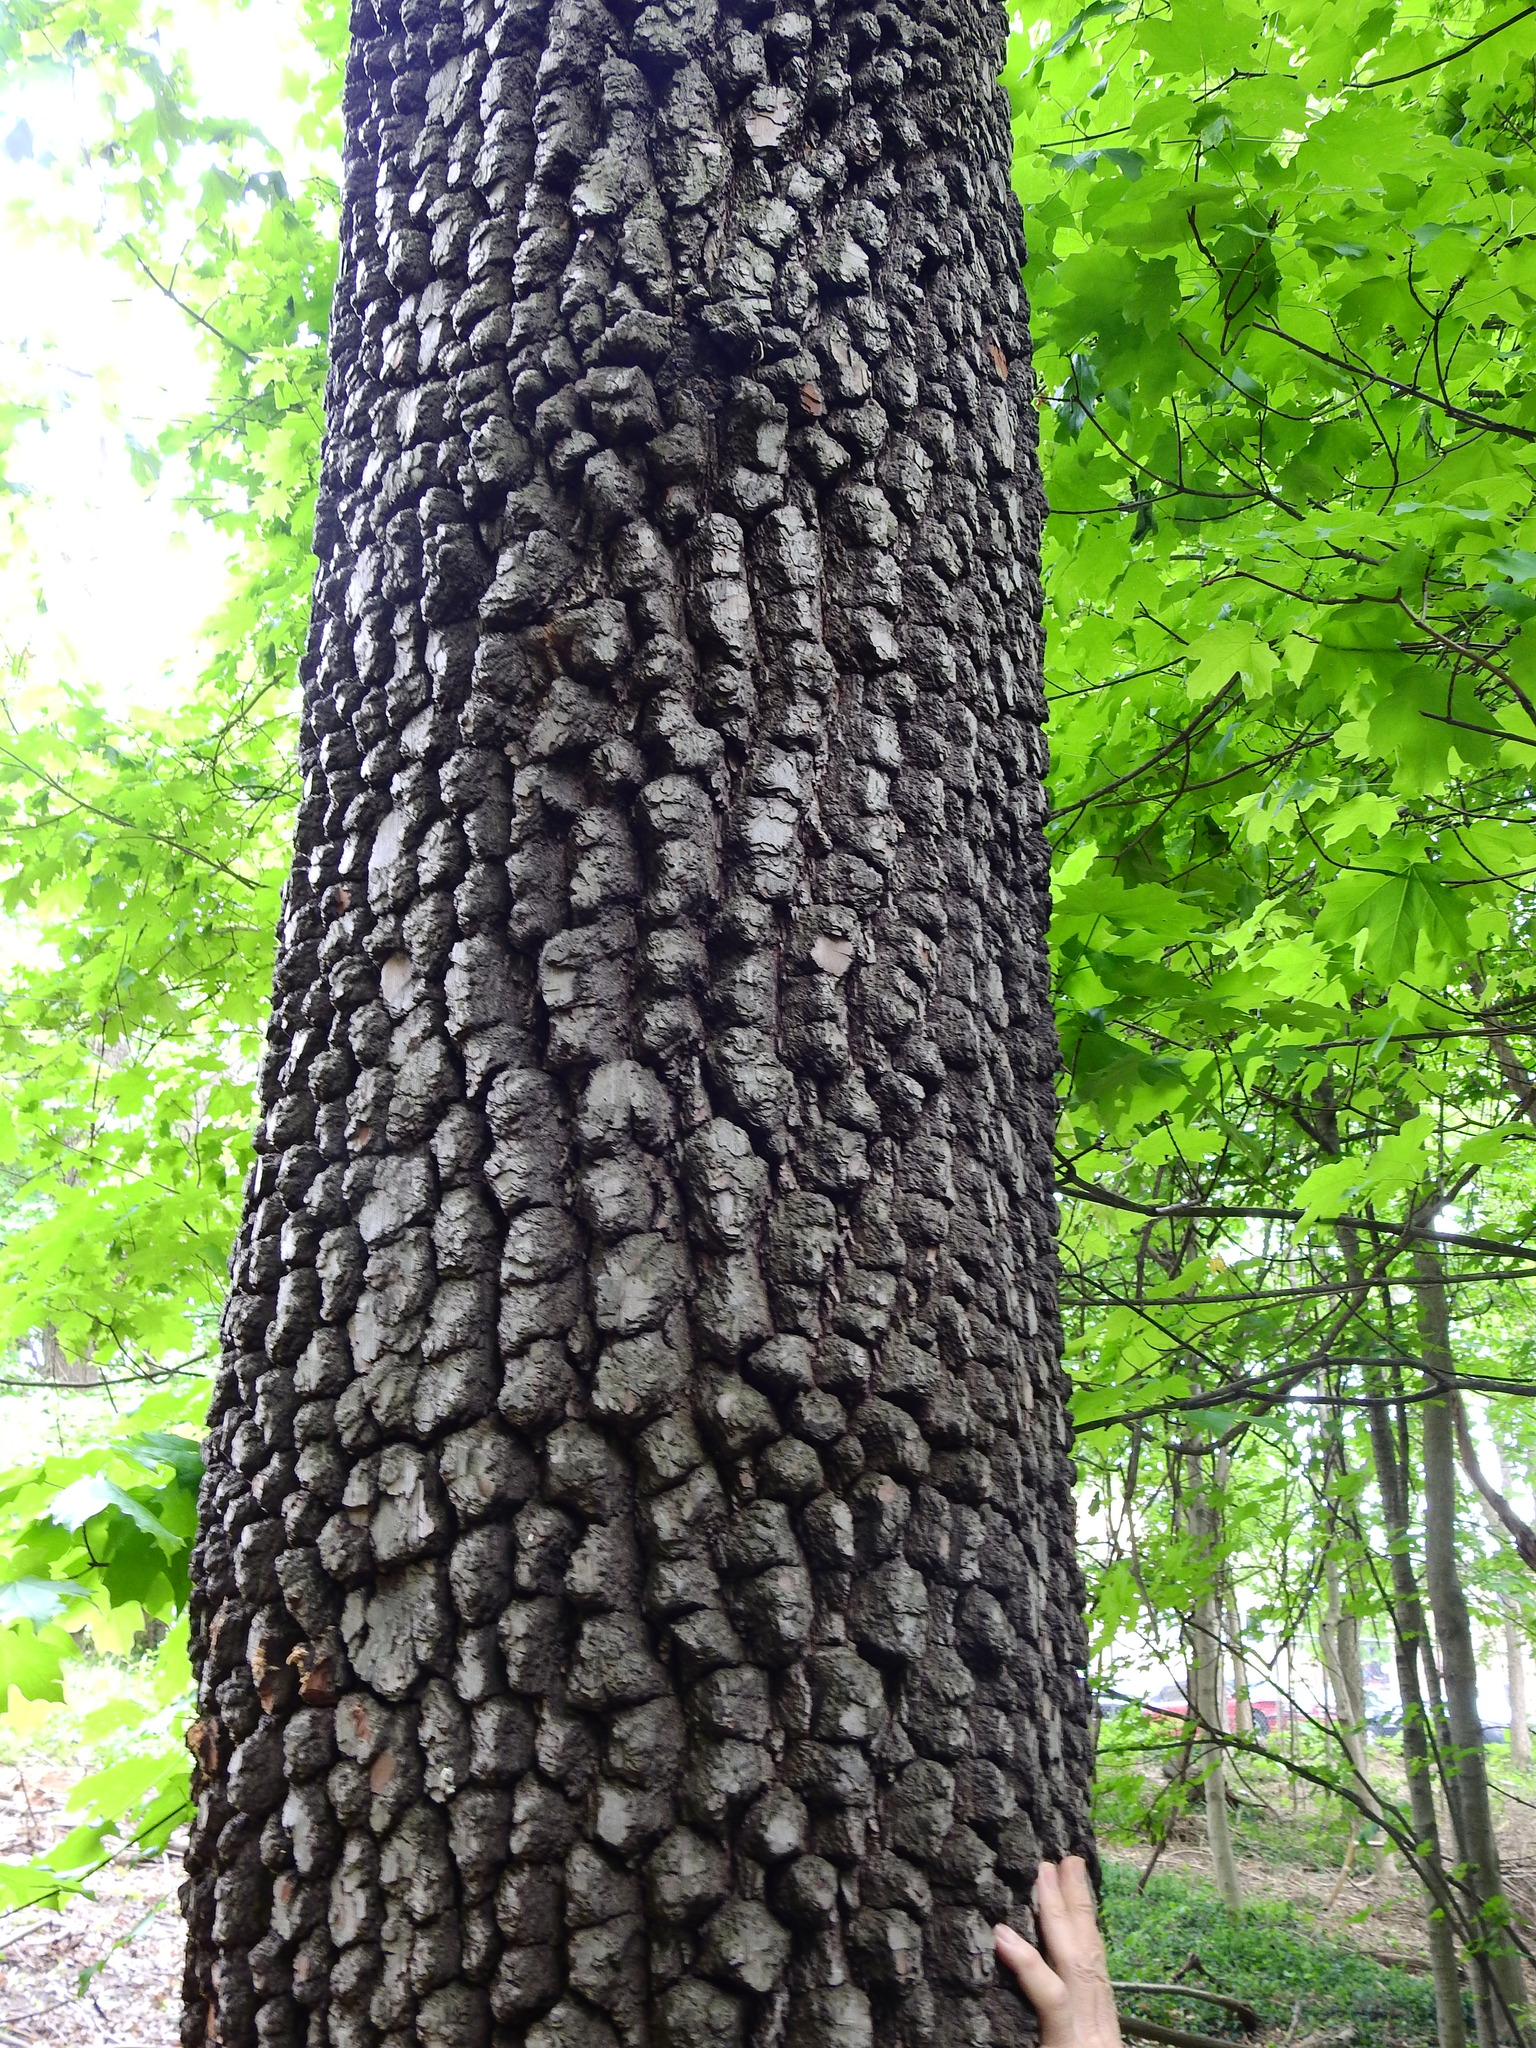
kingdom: Plantae
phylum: Tracheophyta
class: Magnoliopsida
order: Ericales
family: Ebenaceae
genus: Diospyros
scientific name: Diospyros virginiana
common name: Persimmon
